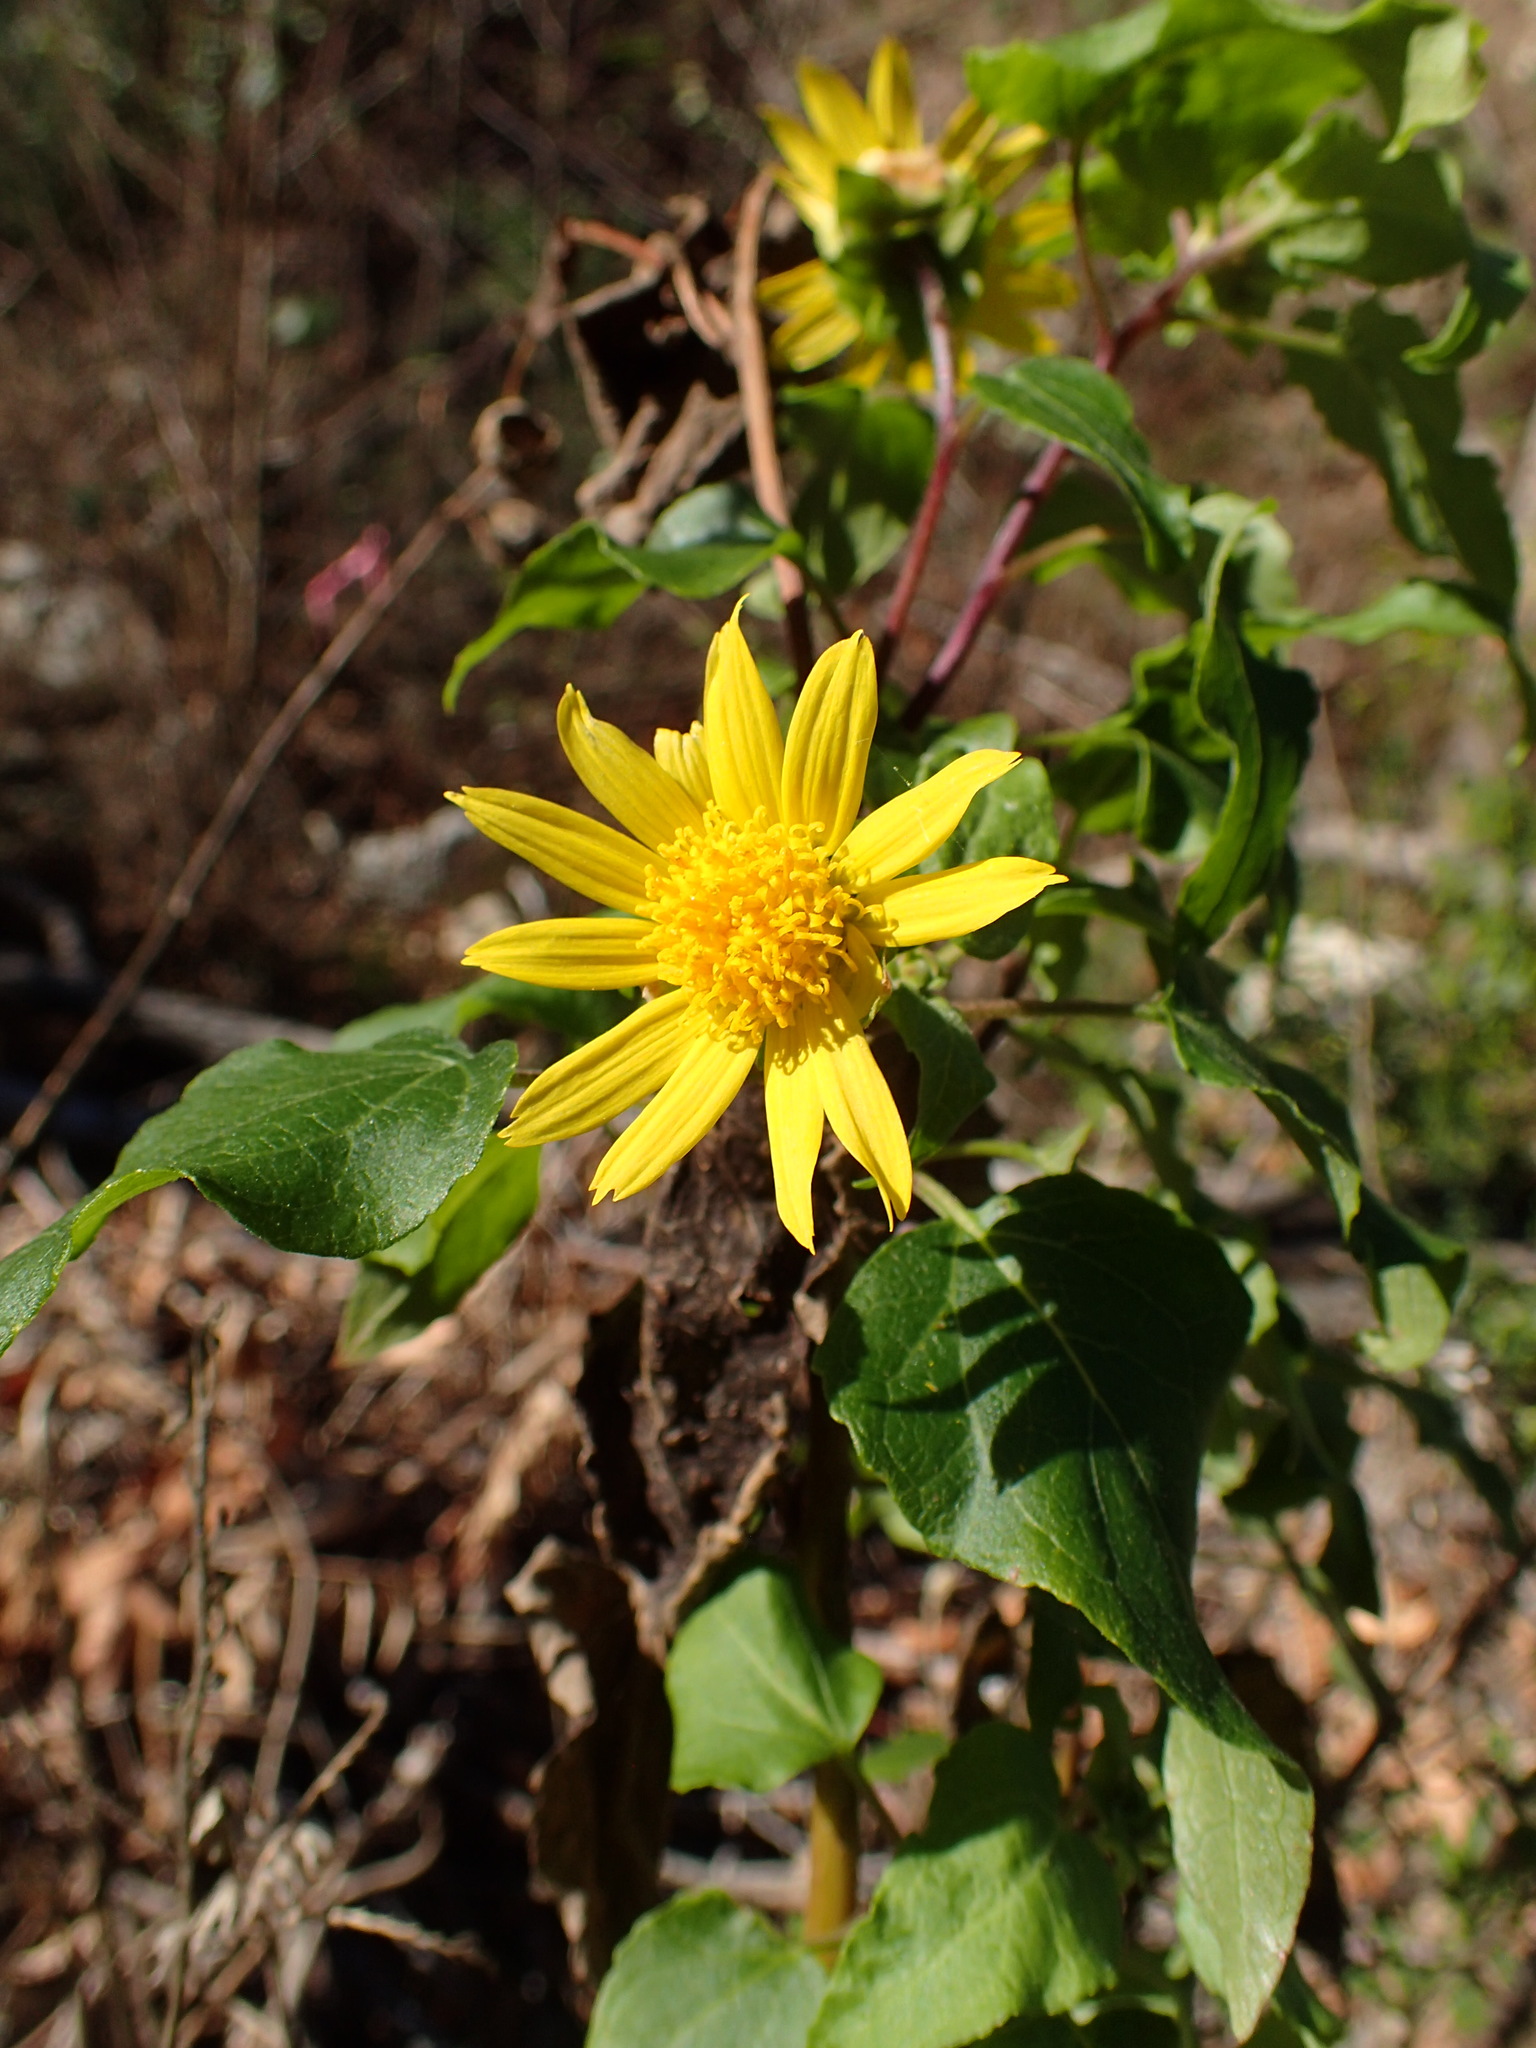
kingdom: Plantae
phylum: Tracheophyta
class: Magnoliopsida
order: Asterales
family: Asteraceae
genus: Venegasia
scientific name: Venegasia carpesioides
